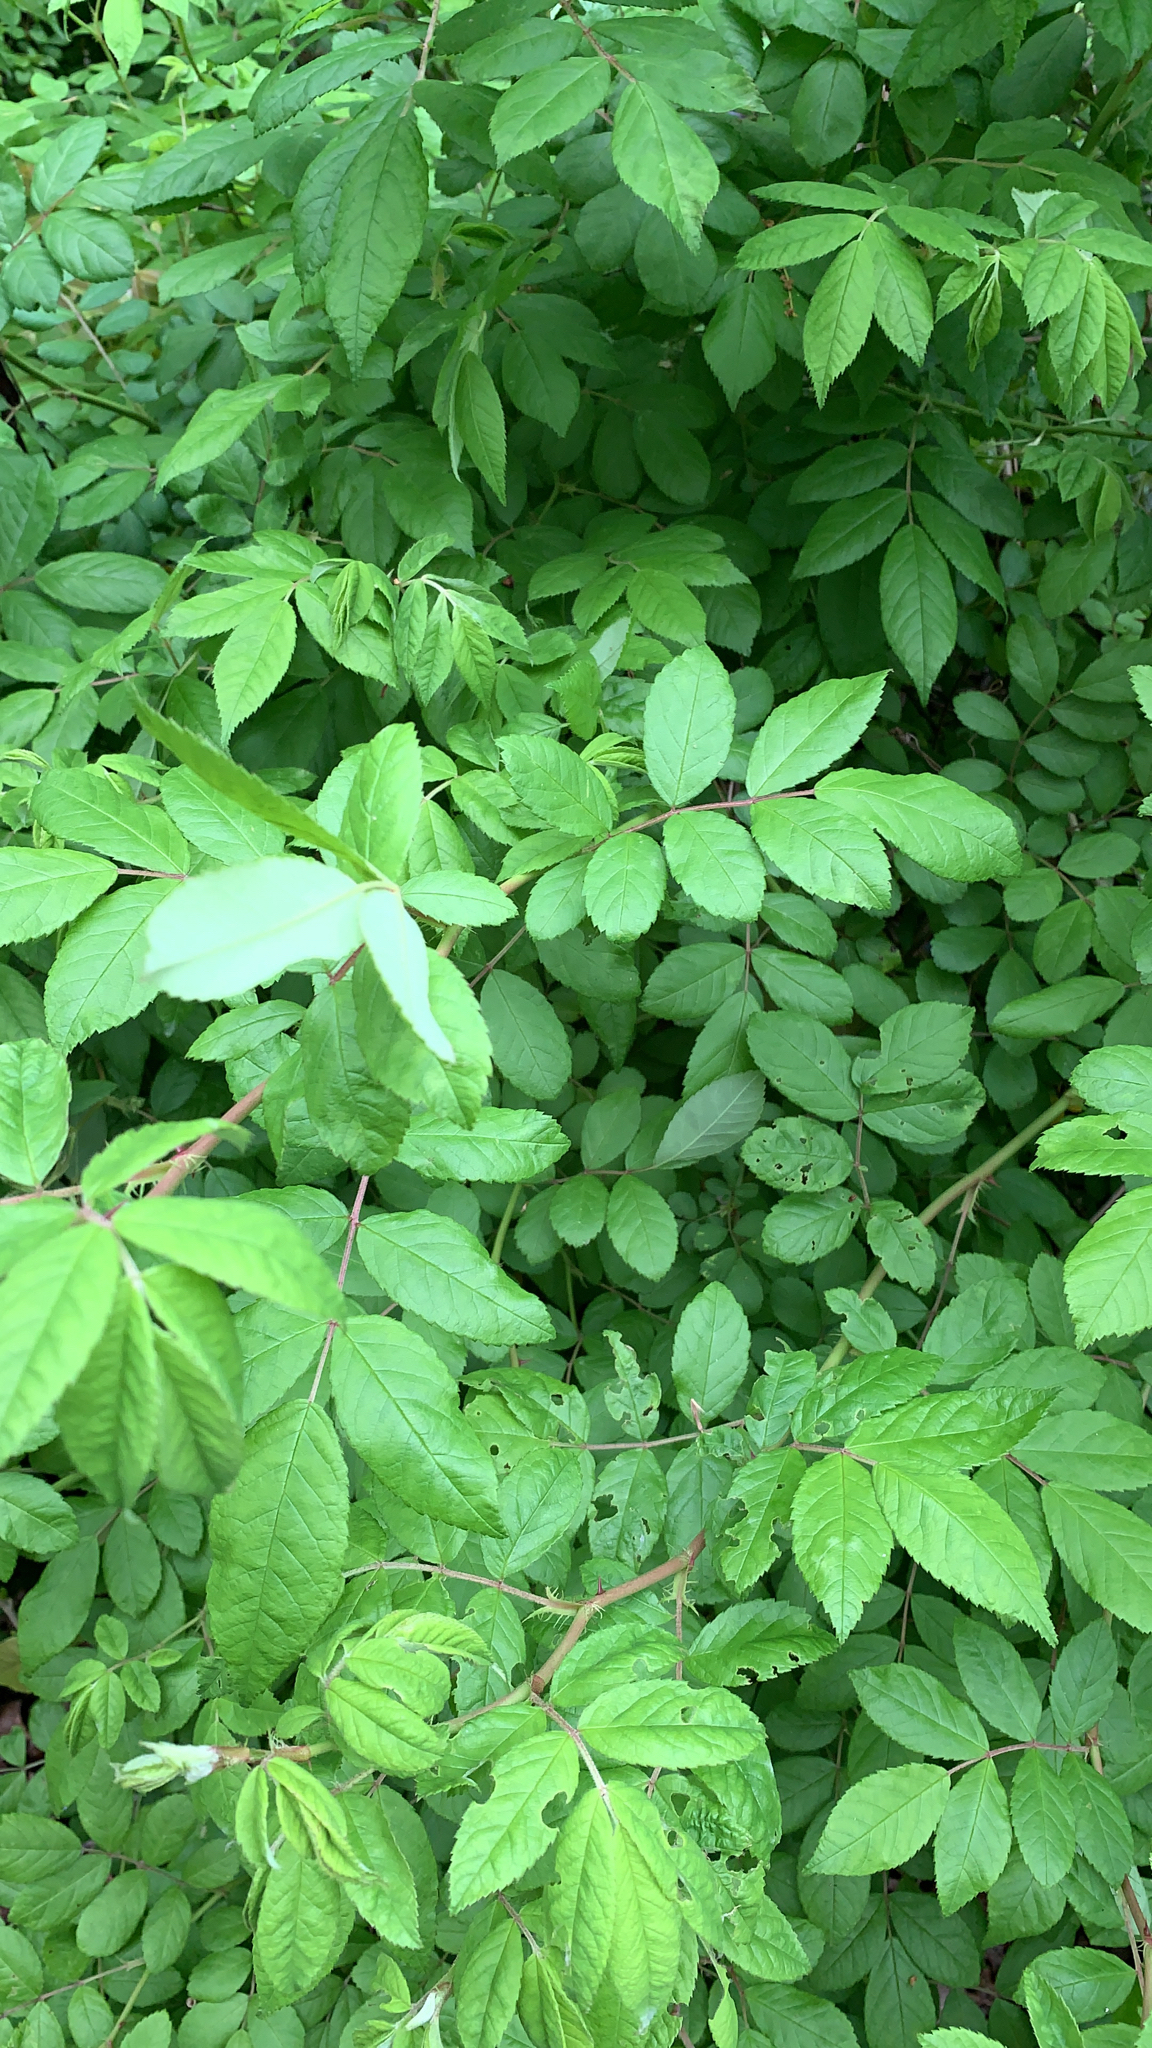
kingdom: Plantae
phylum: Tracheophyta
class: Magnoliopsida
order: Rosales
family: Rosaceae
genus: Rosa
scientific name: Rosa multiflora
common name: Multiflora rose
